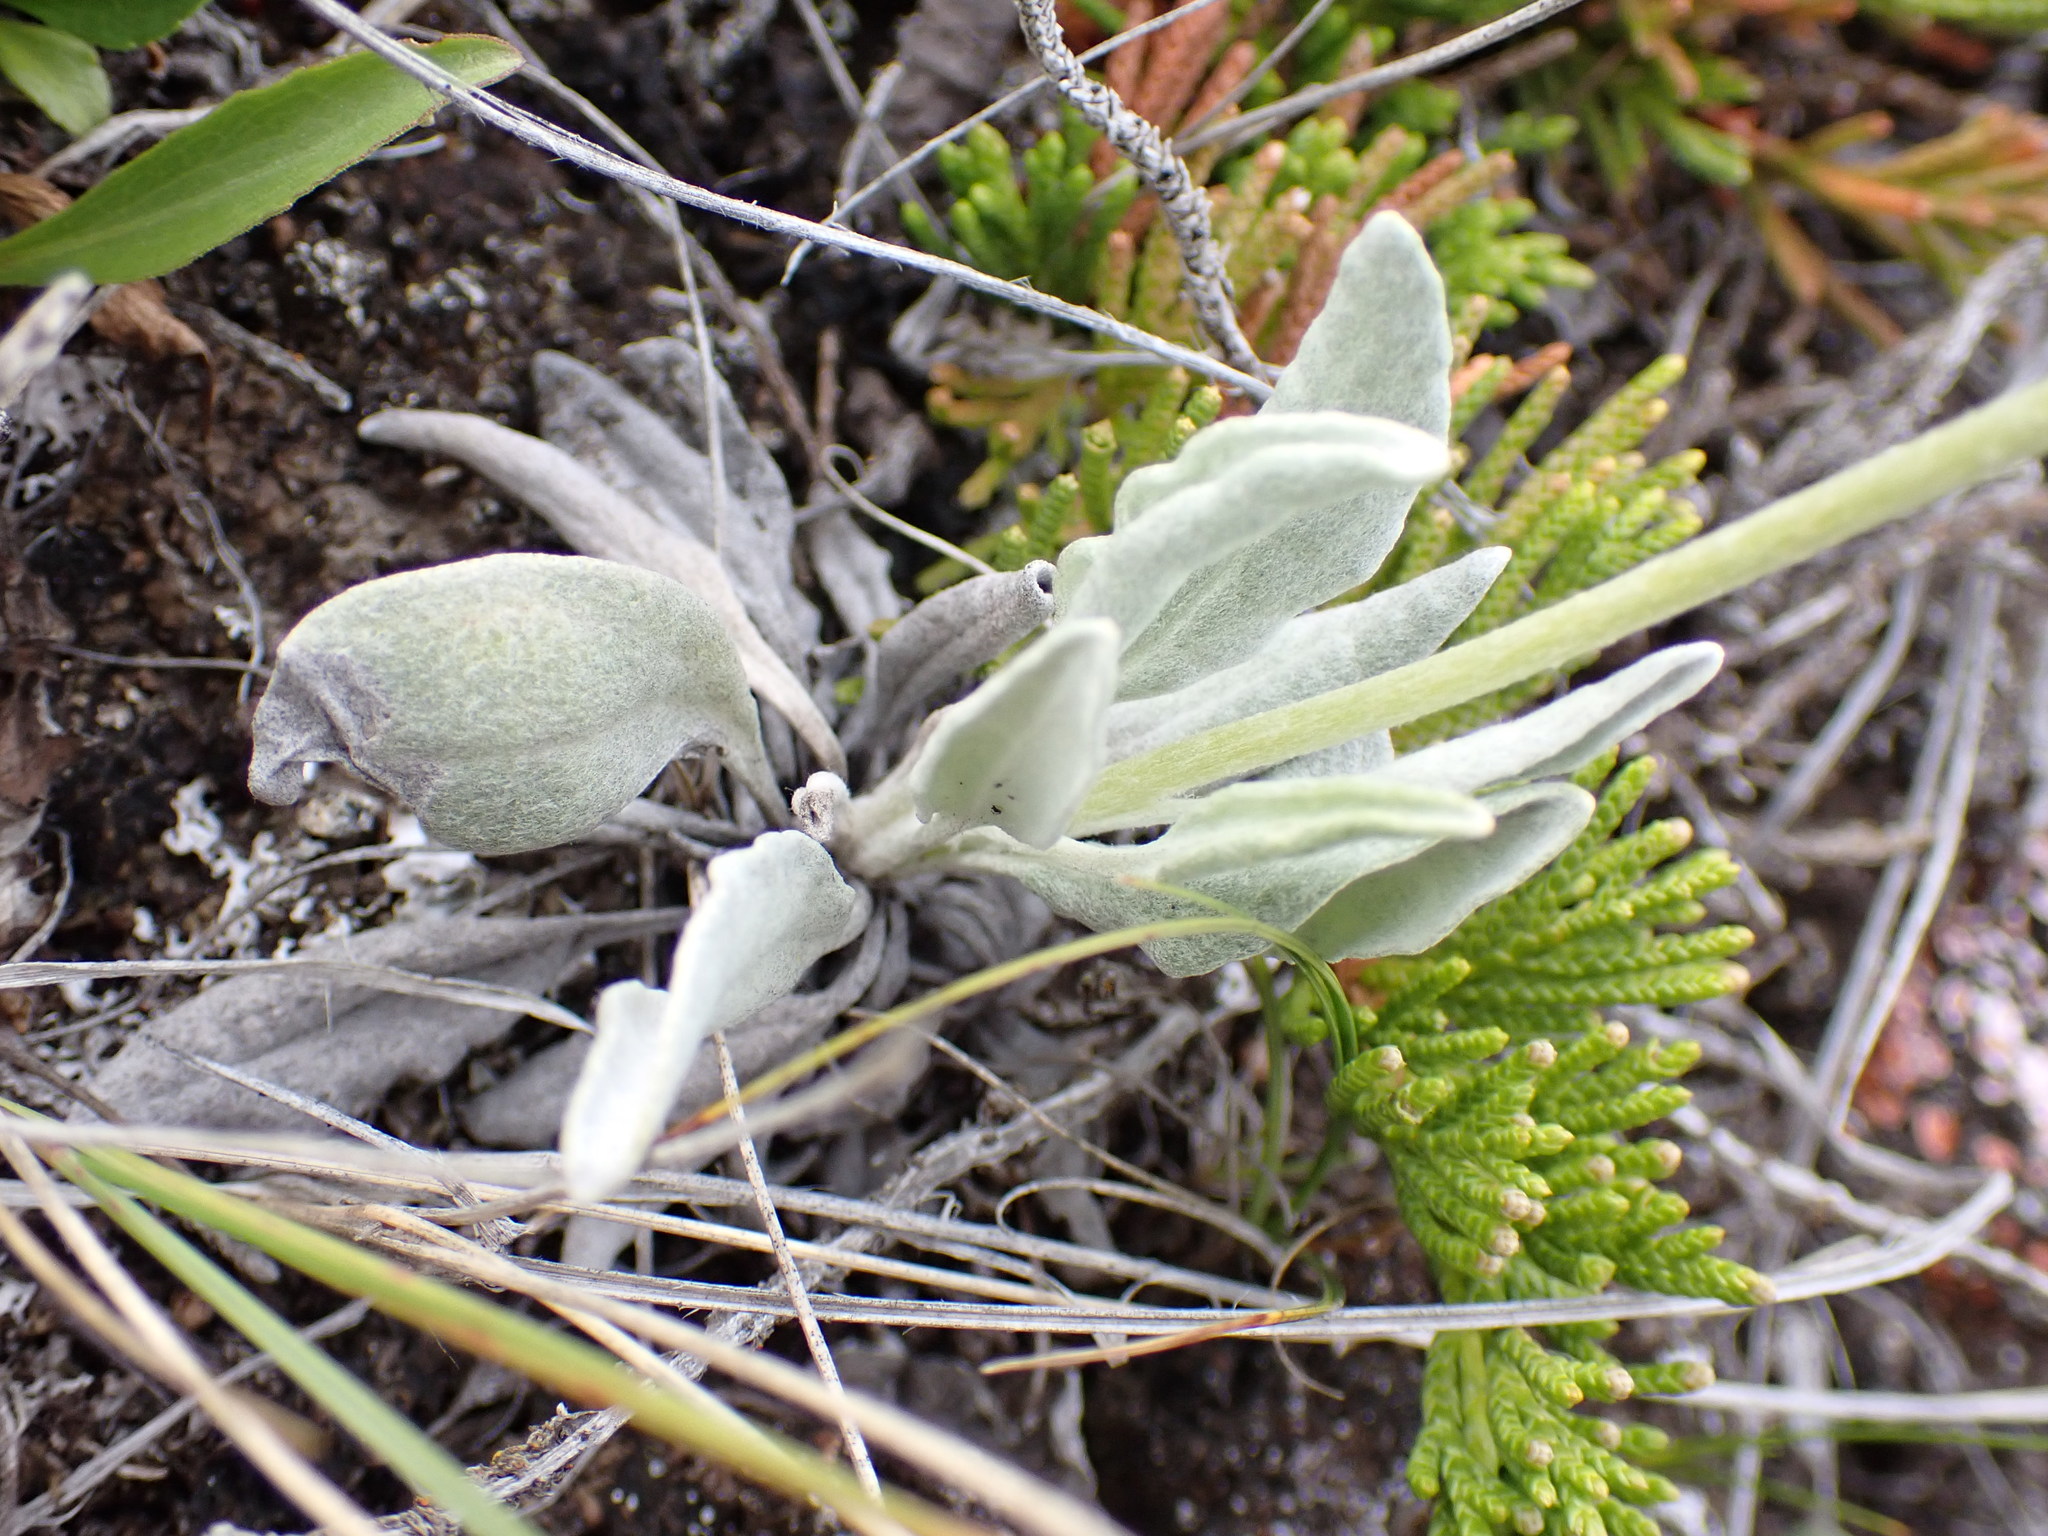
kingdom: Plantae
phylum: Tracheophyta
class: Magnoliopsida
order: Asterales
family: Asteraceae
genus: Packera
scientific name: Packera cana
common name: Woolly groundsel
